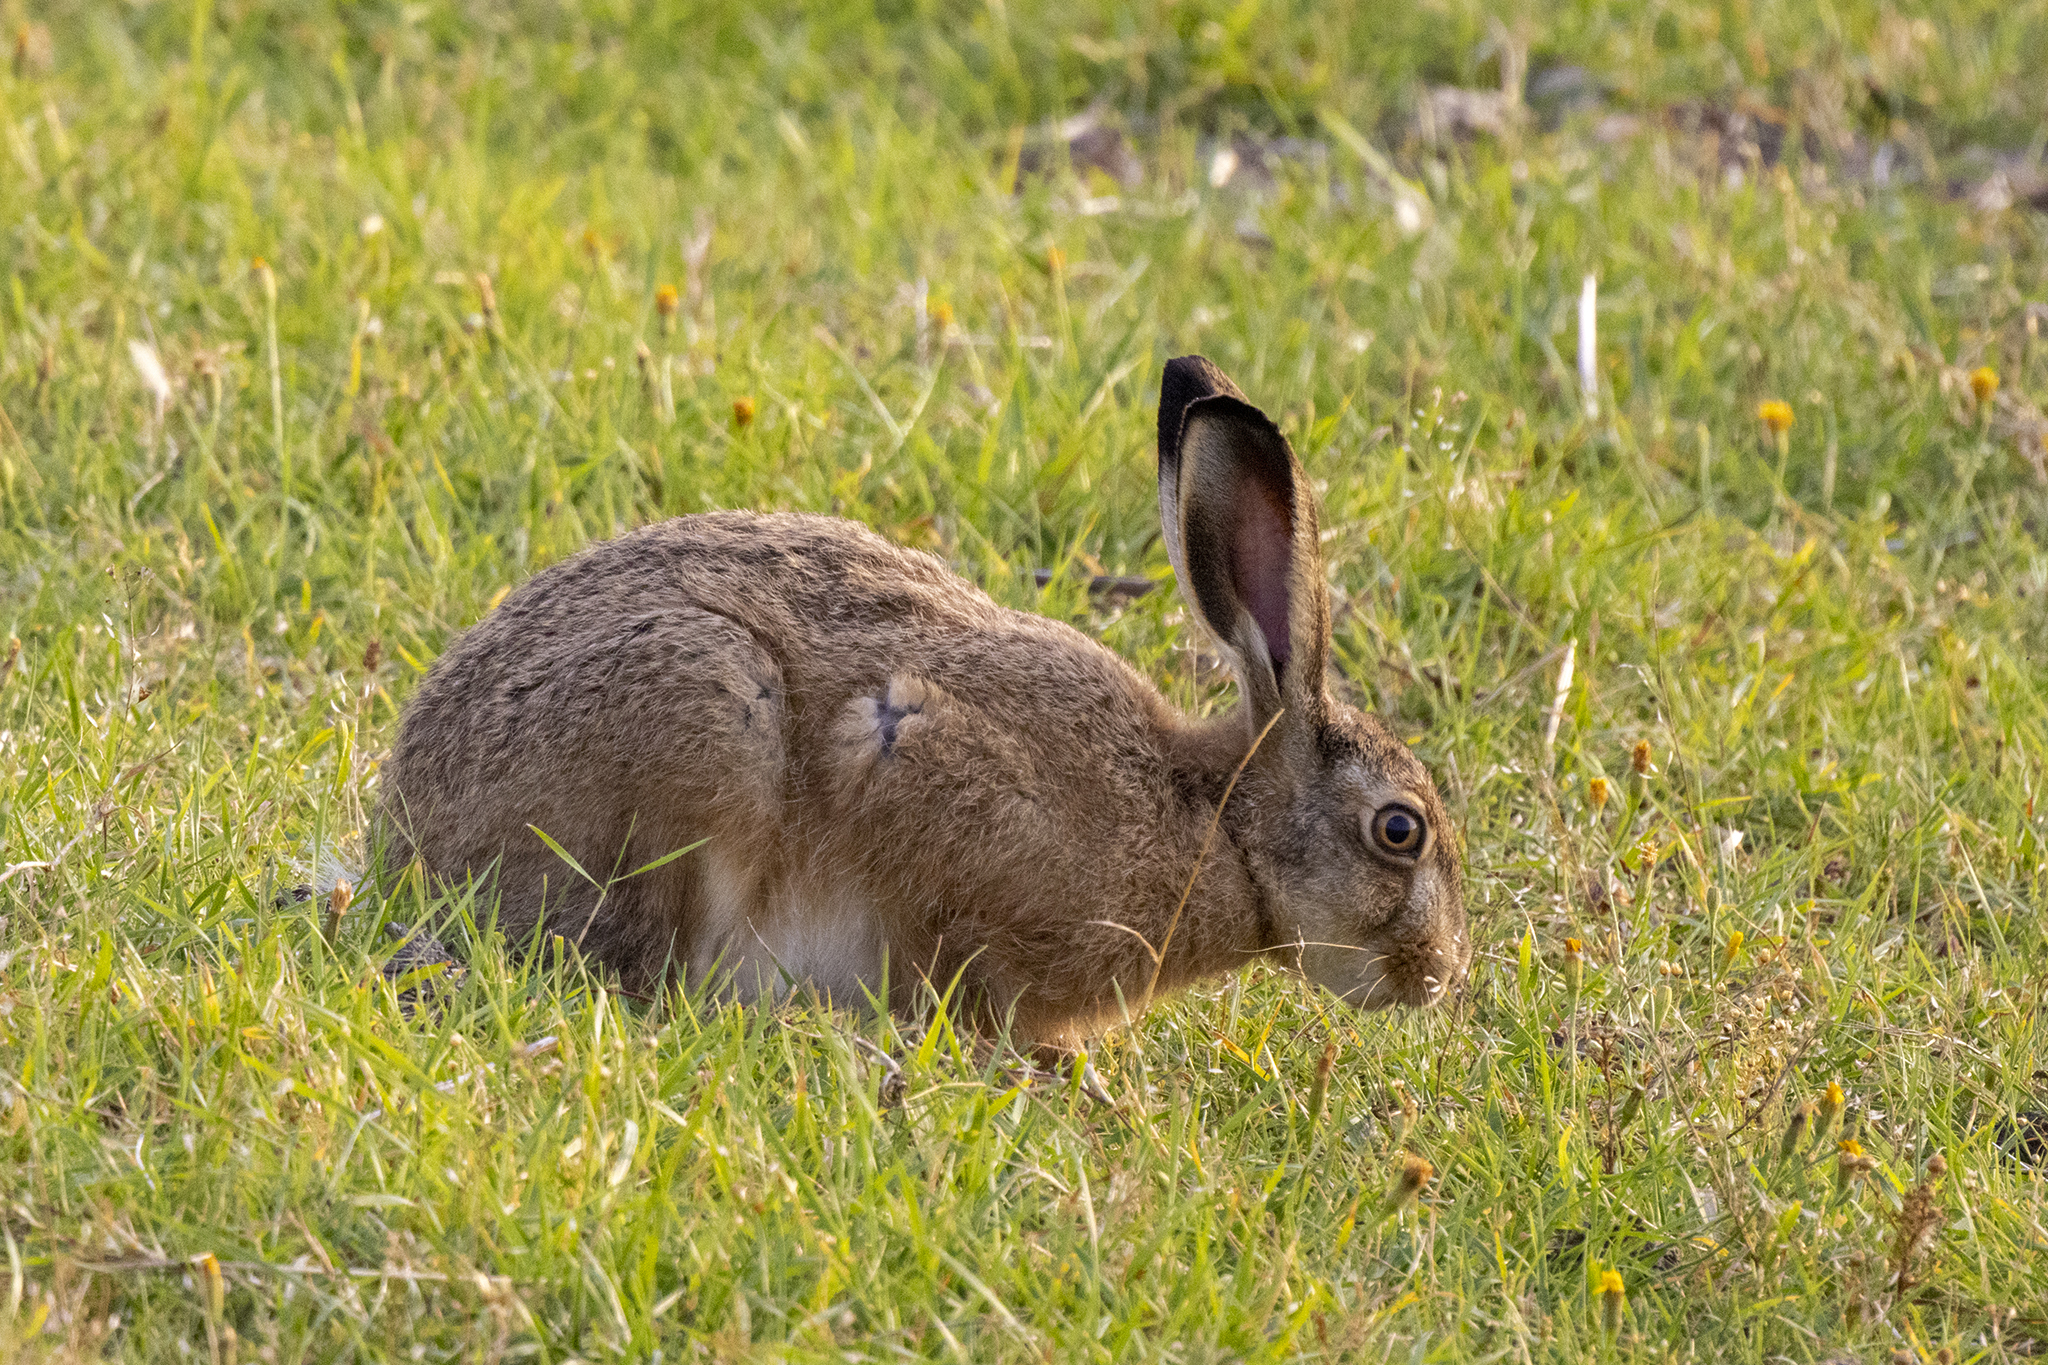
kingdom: Animalia
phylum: Chordata
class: Mammalia
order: Lagomorpha
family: Leporidae
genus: Lepus
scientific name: Lepus europaeus
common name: European hare
